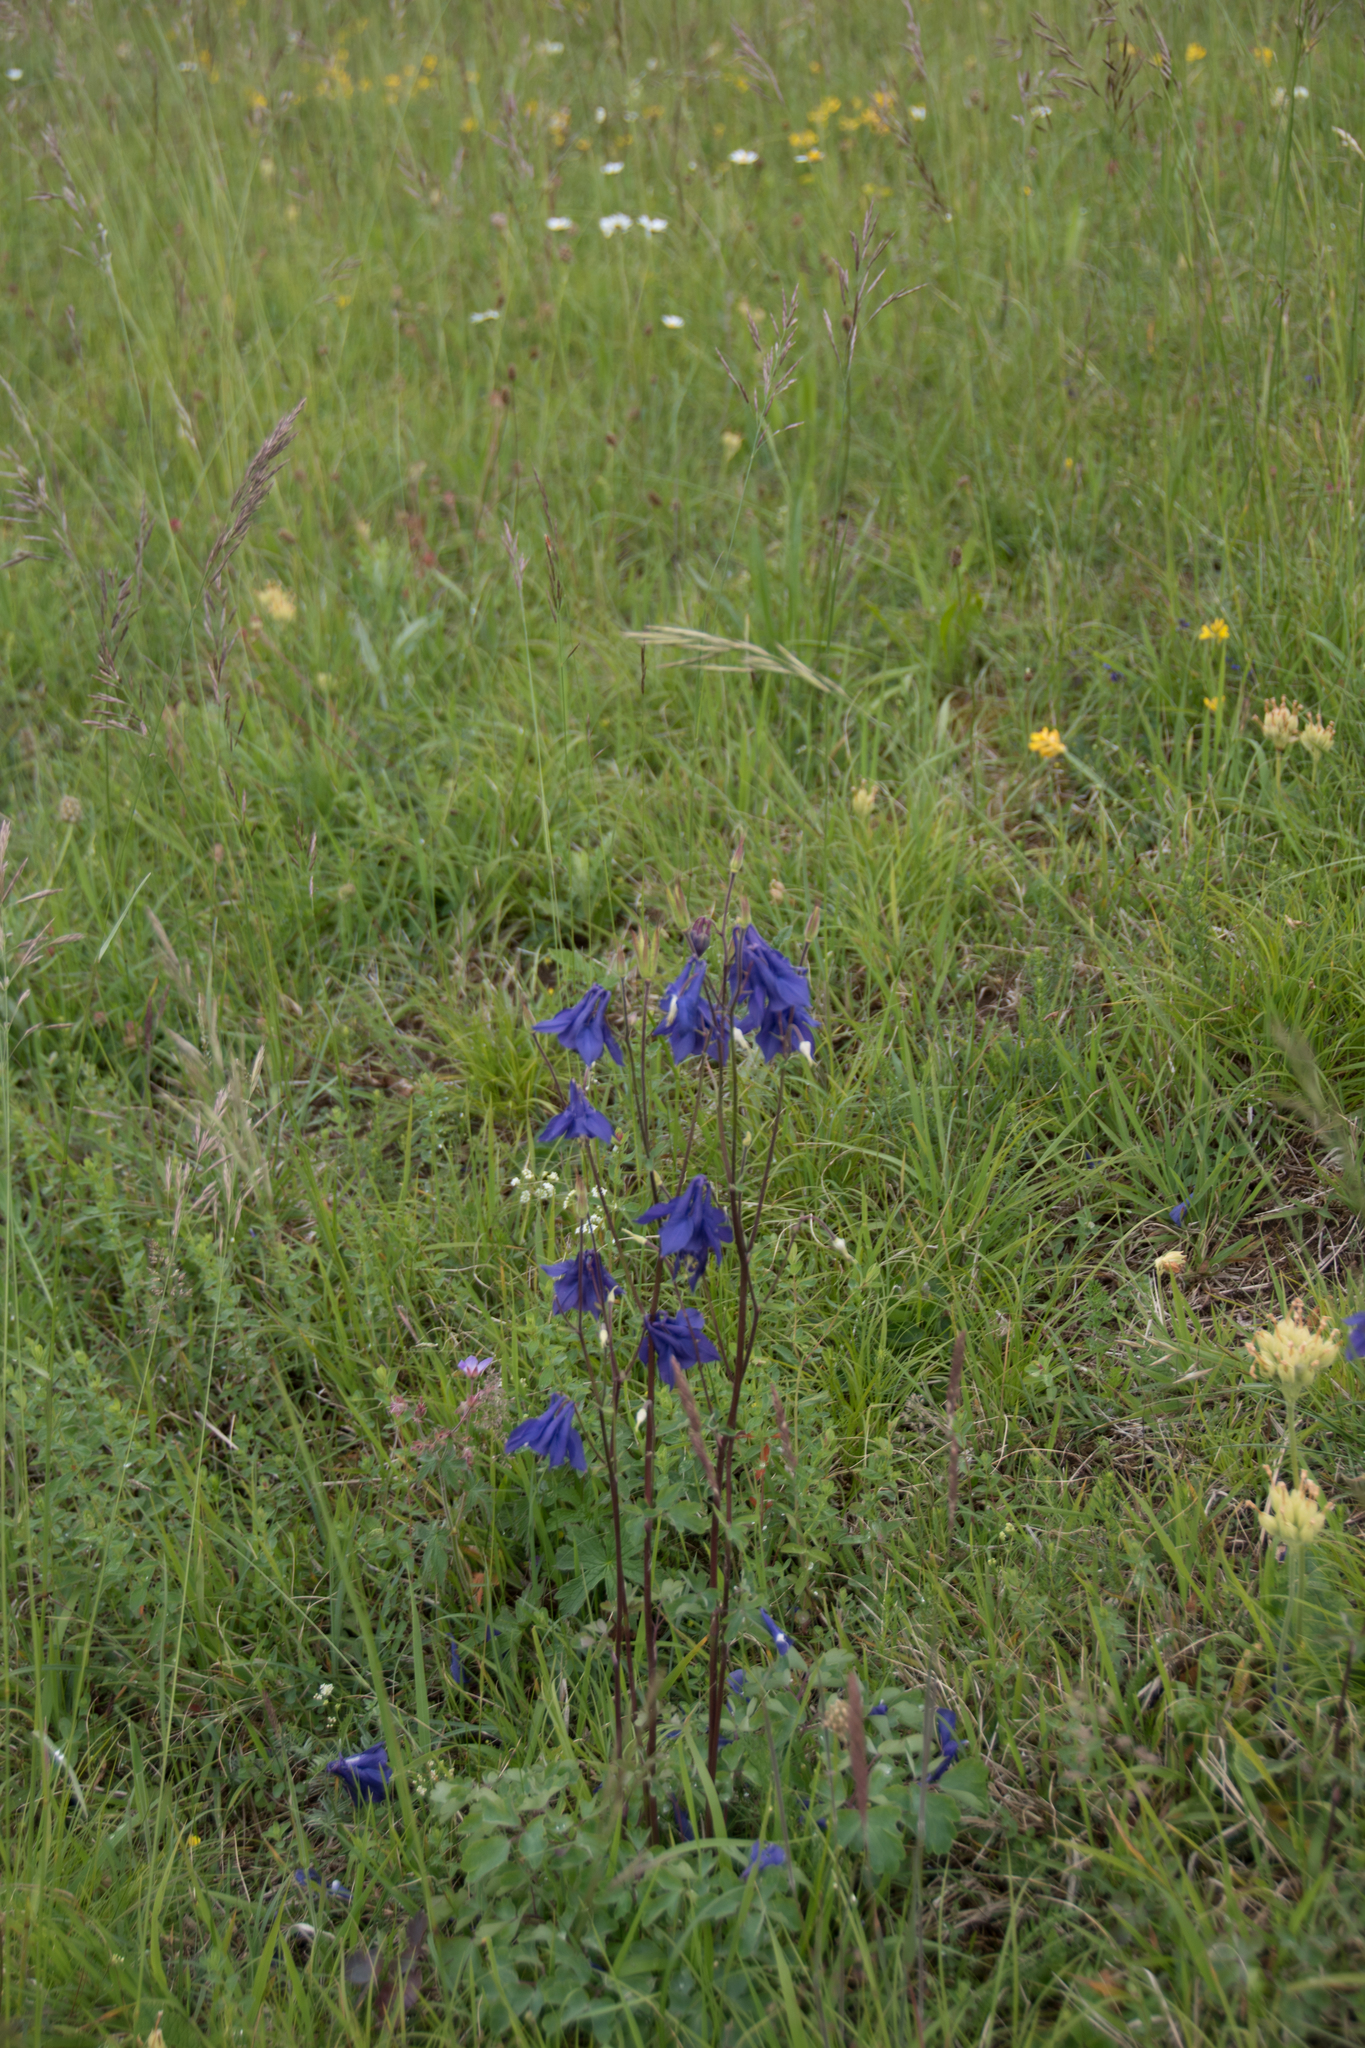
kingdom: Plantae
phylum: Tracheophyta
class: Magnoliopsida
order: Ranunculales
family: Ranunculaceae
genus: Aquilegia
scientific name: Aquilegia vulgaris
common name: Columbine
